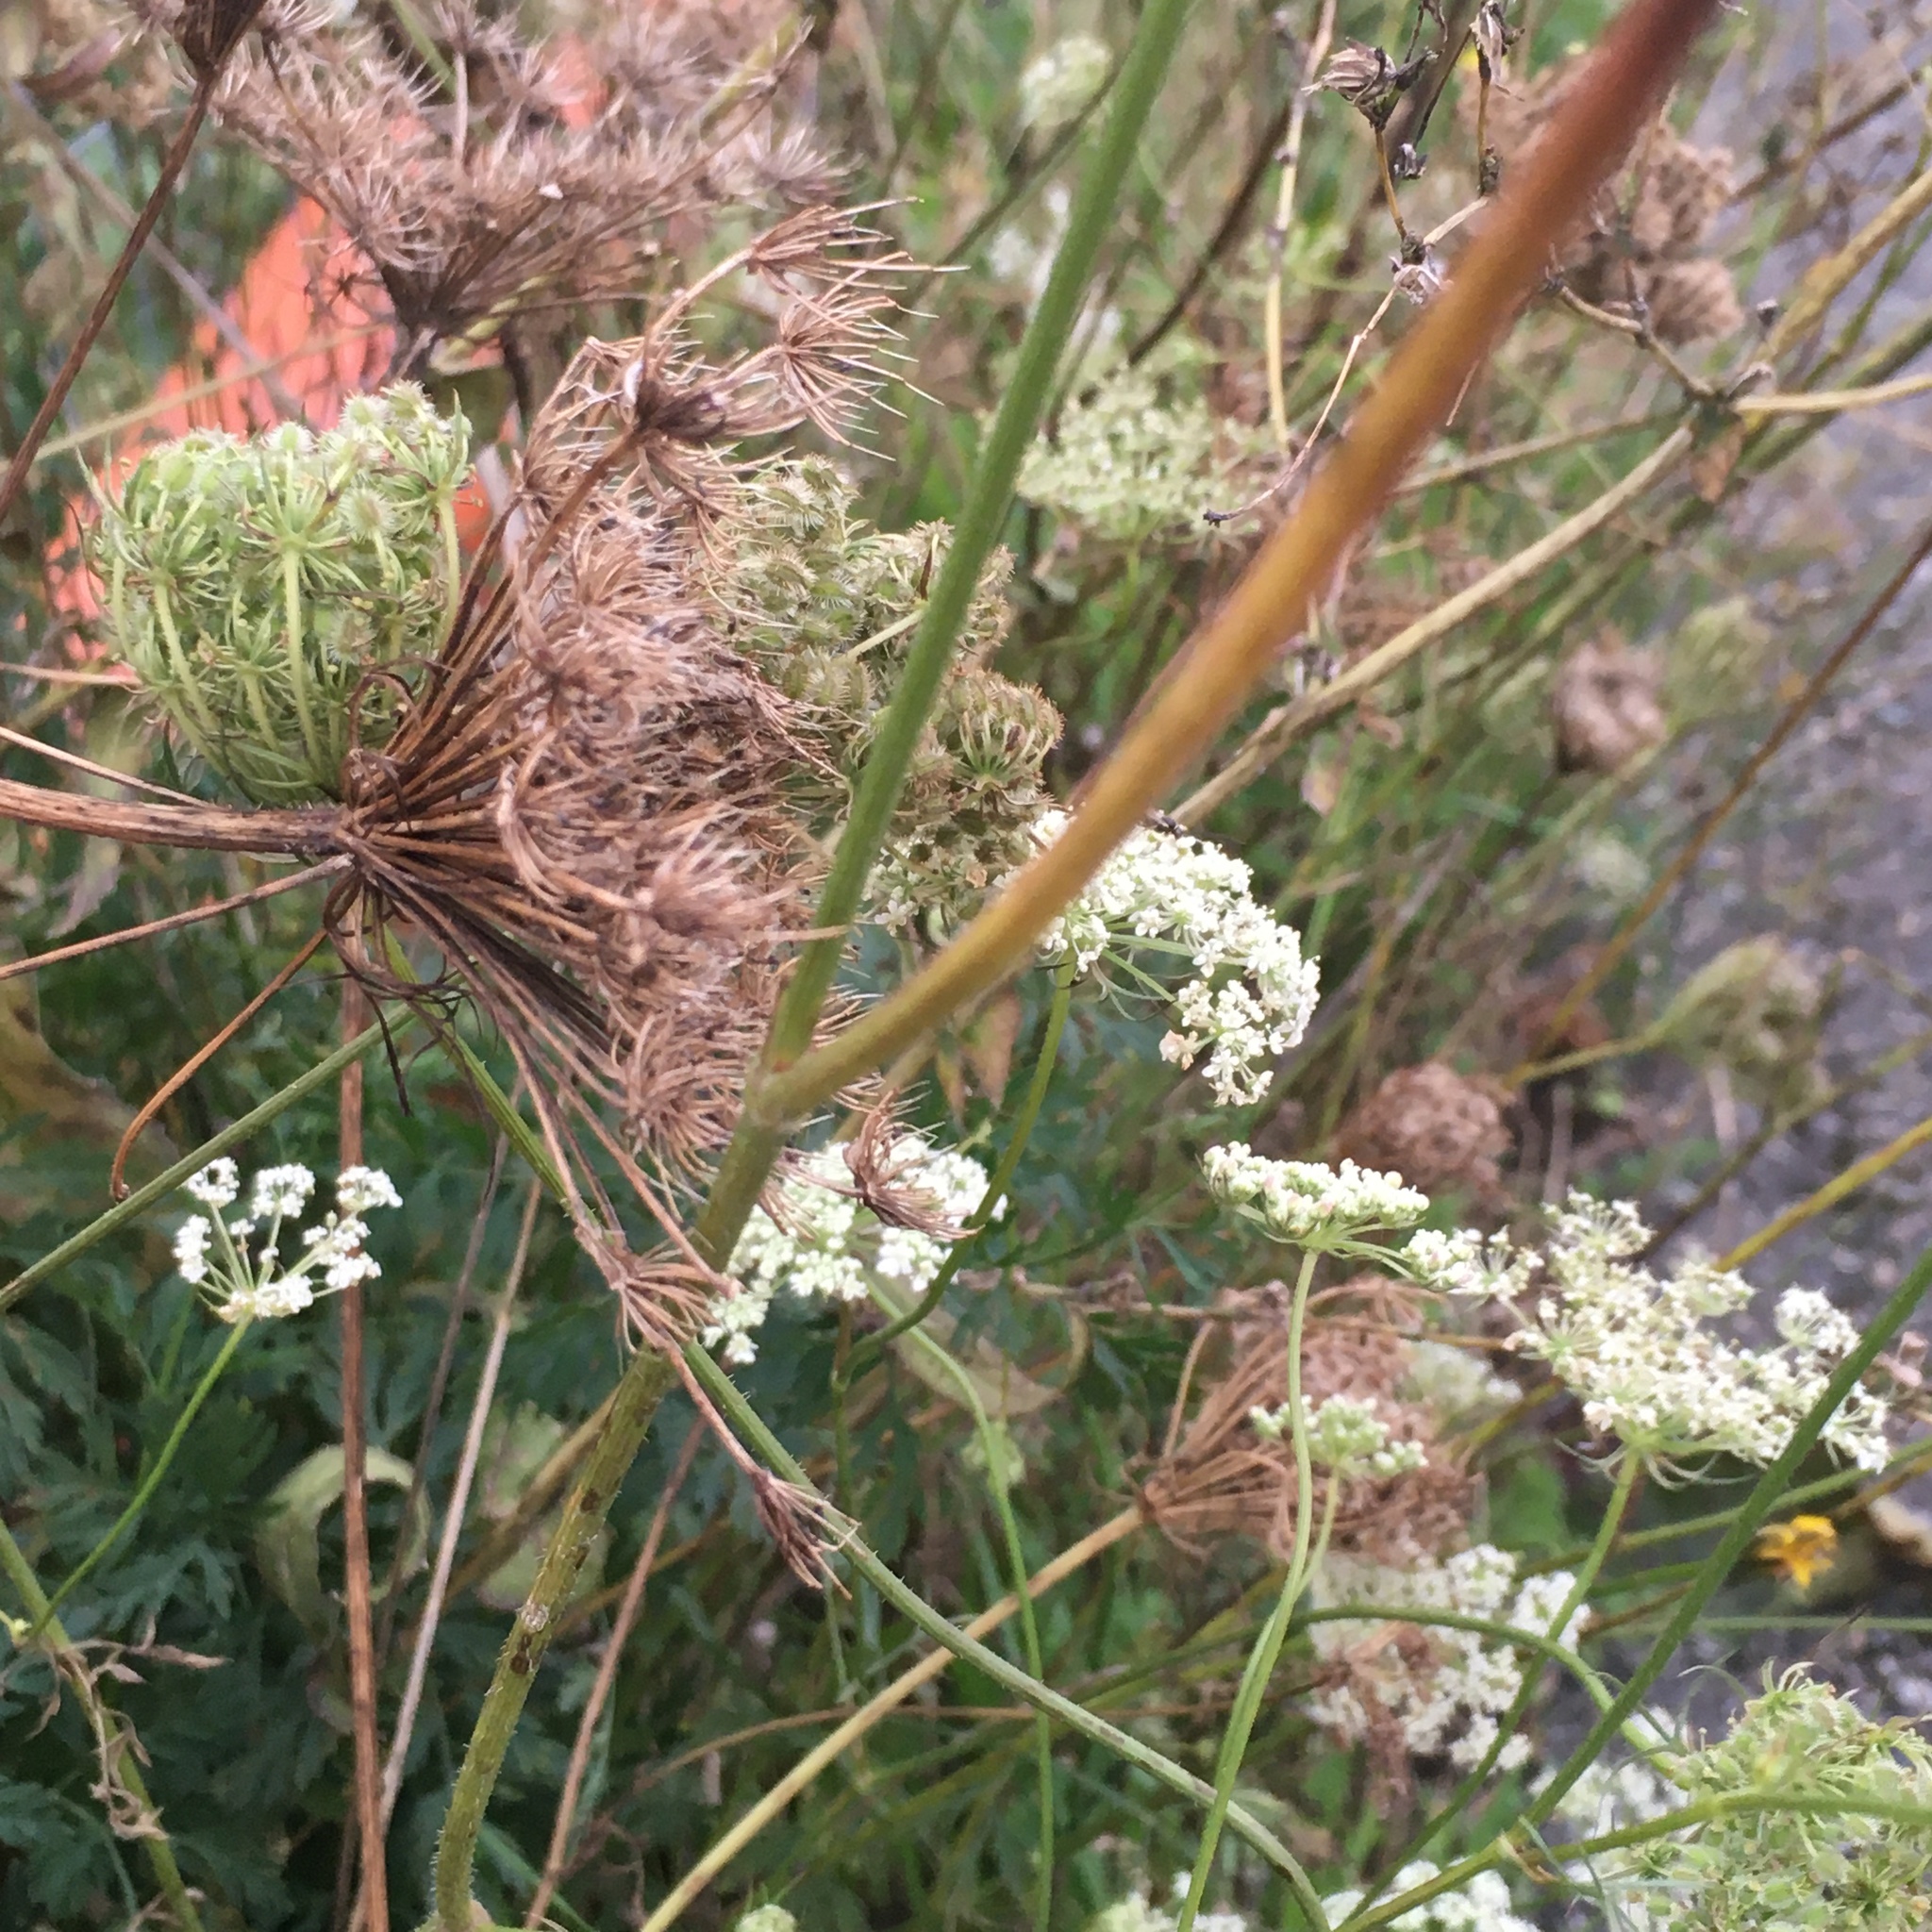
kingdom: Plantae
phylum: Tracheophyta
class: Magnoliopsida
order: Apiales
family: Apiaceae
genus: Daucus
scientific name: Daucus carota
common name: Wild carrot
